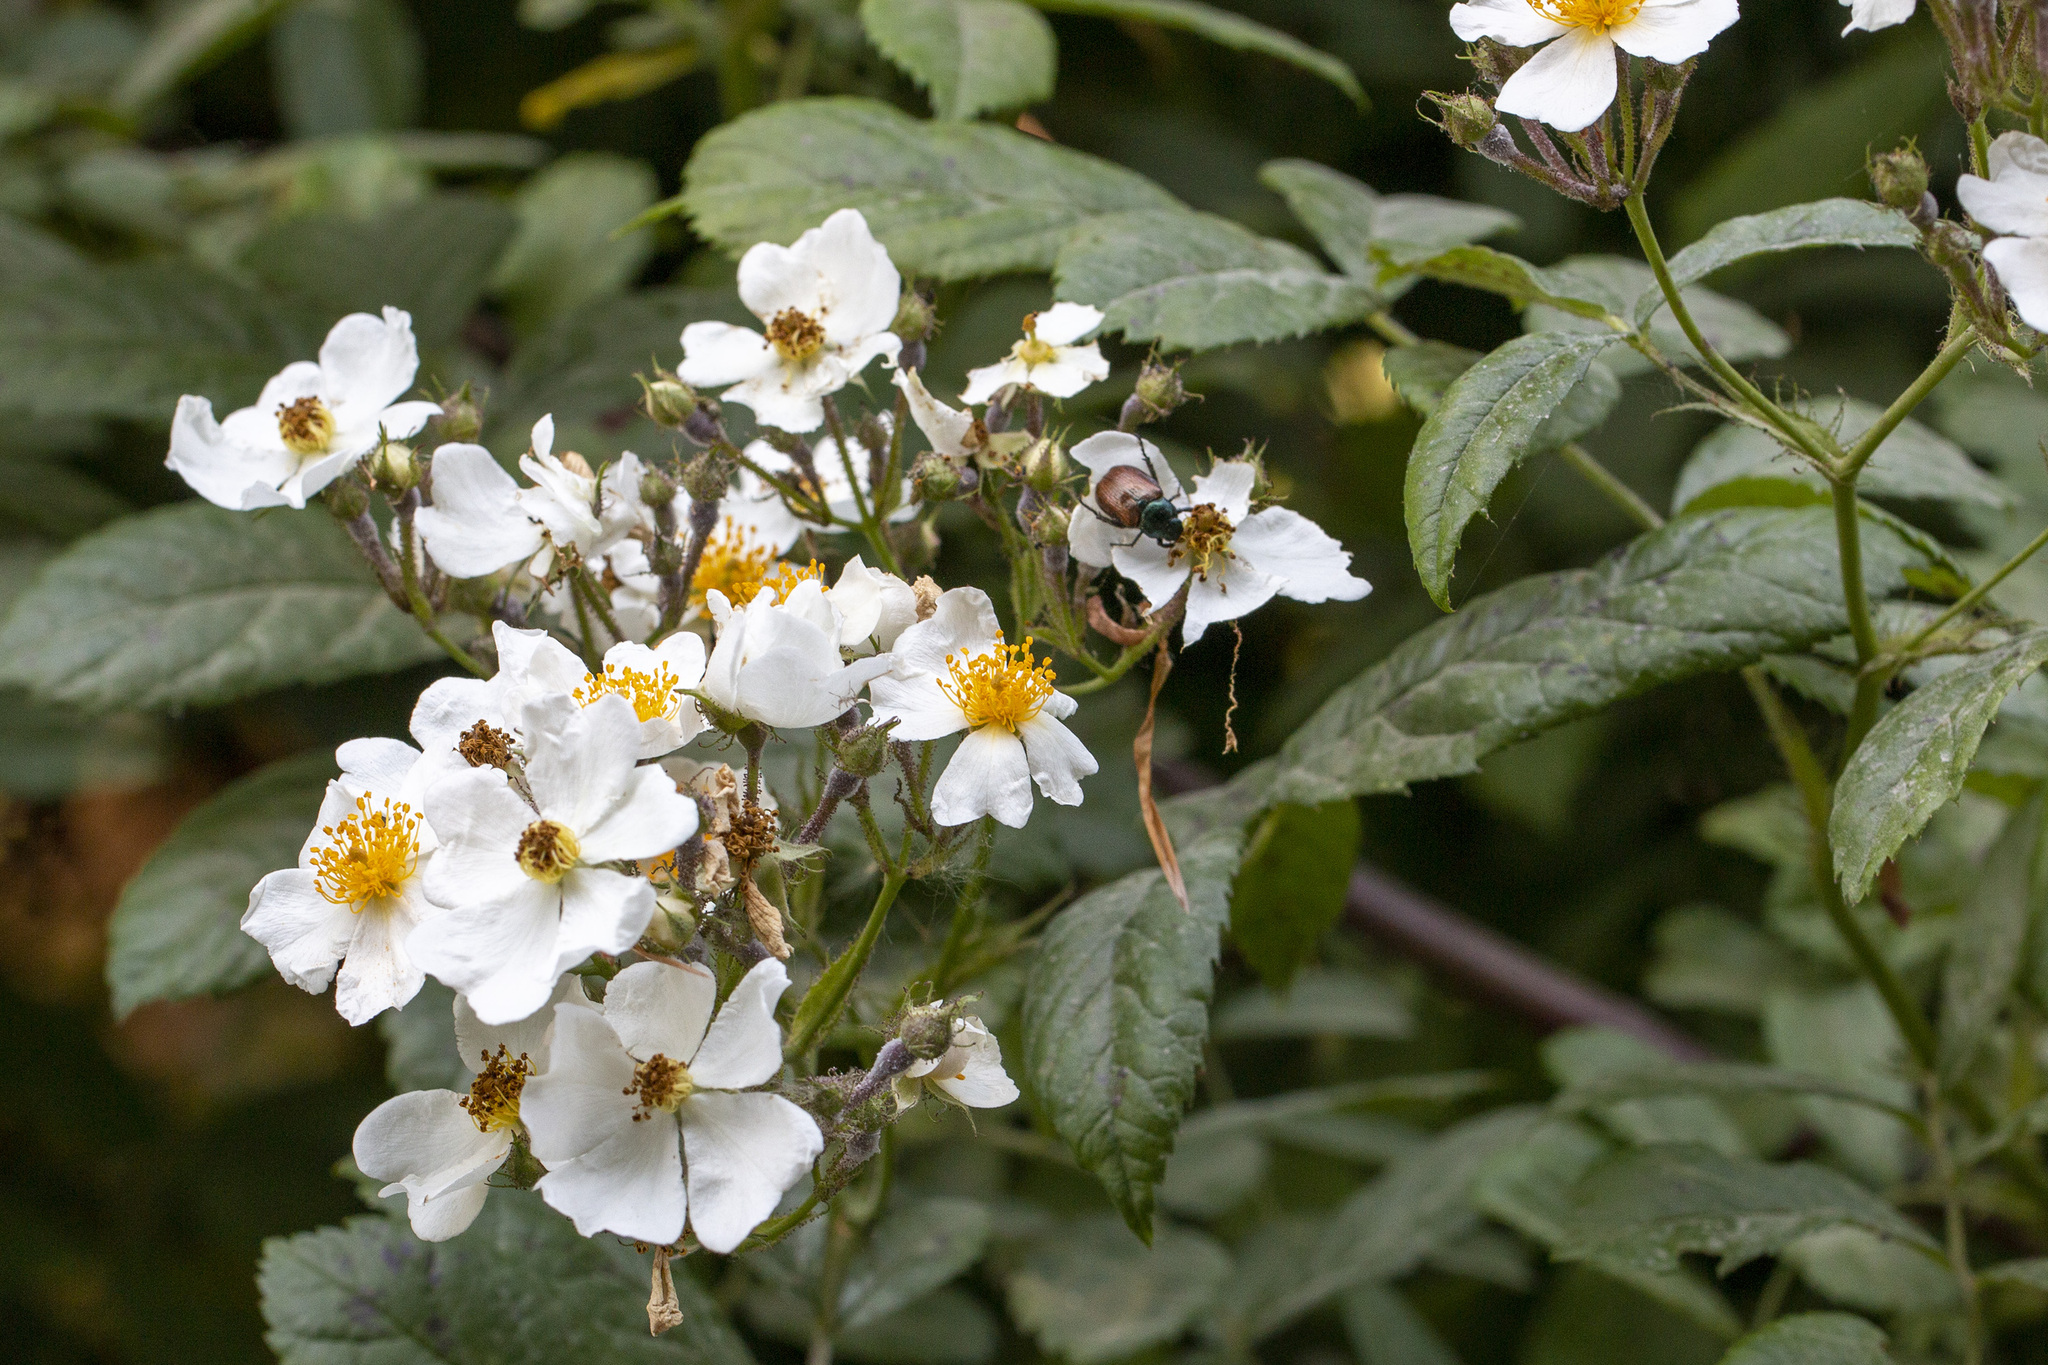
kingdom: Plantae
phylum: Tracheophyta
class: Magnoliopsida
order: Rosales
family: Rosaceae
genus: Rosa
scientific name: Rosa multiflora
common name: Multiflora rose
